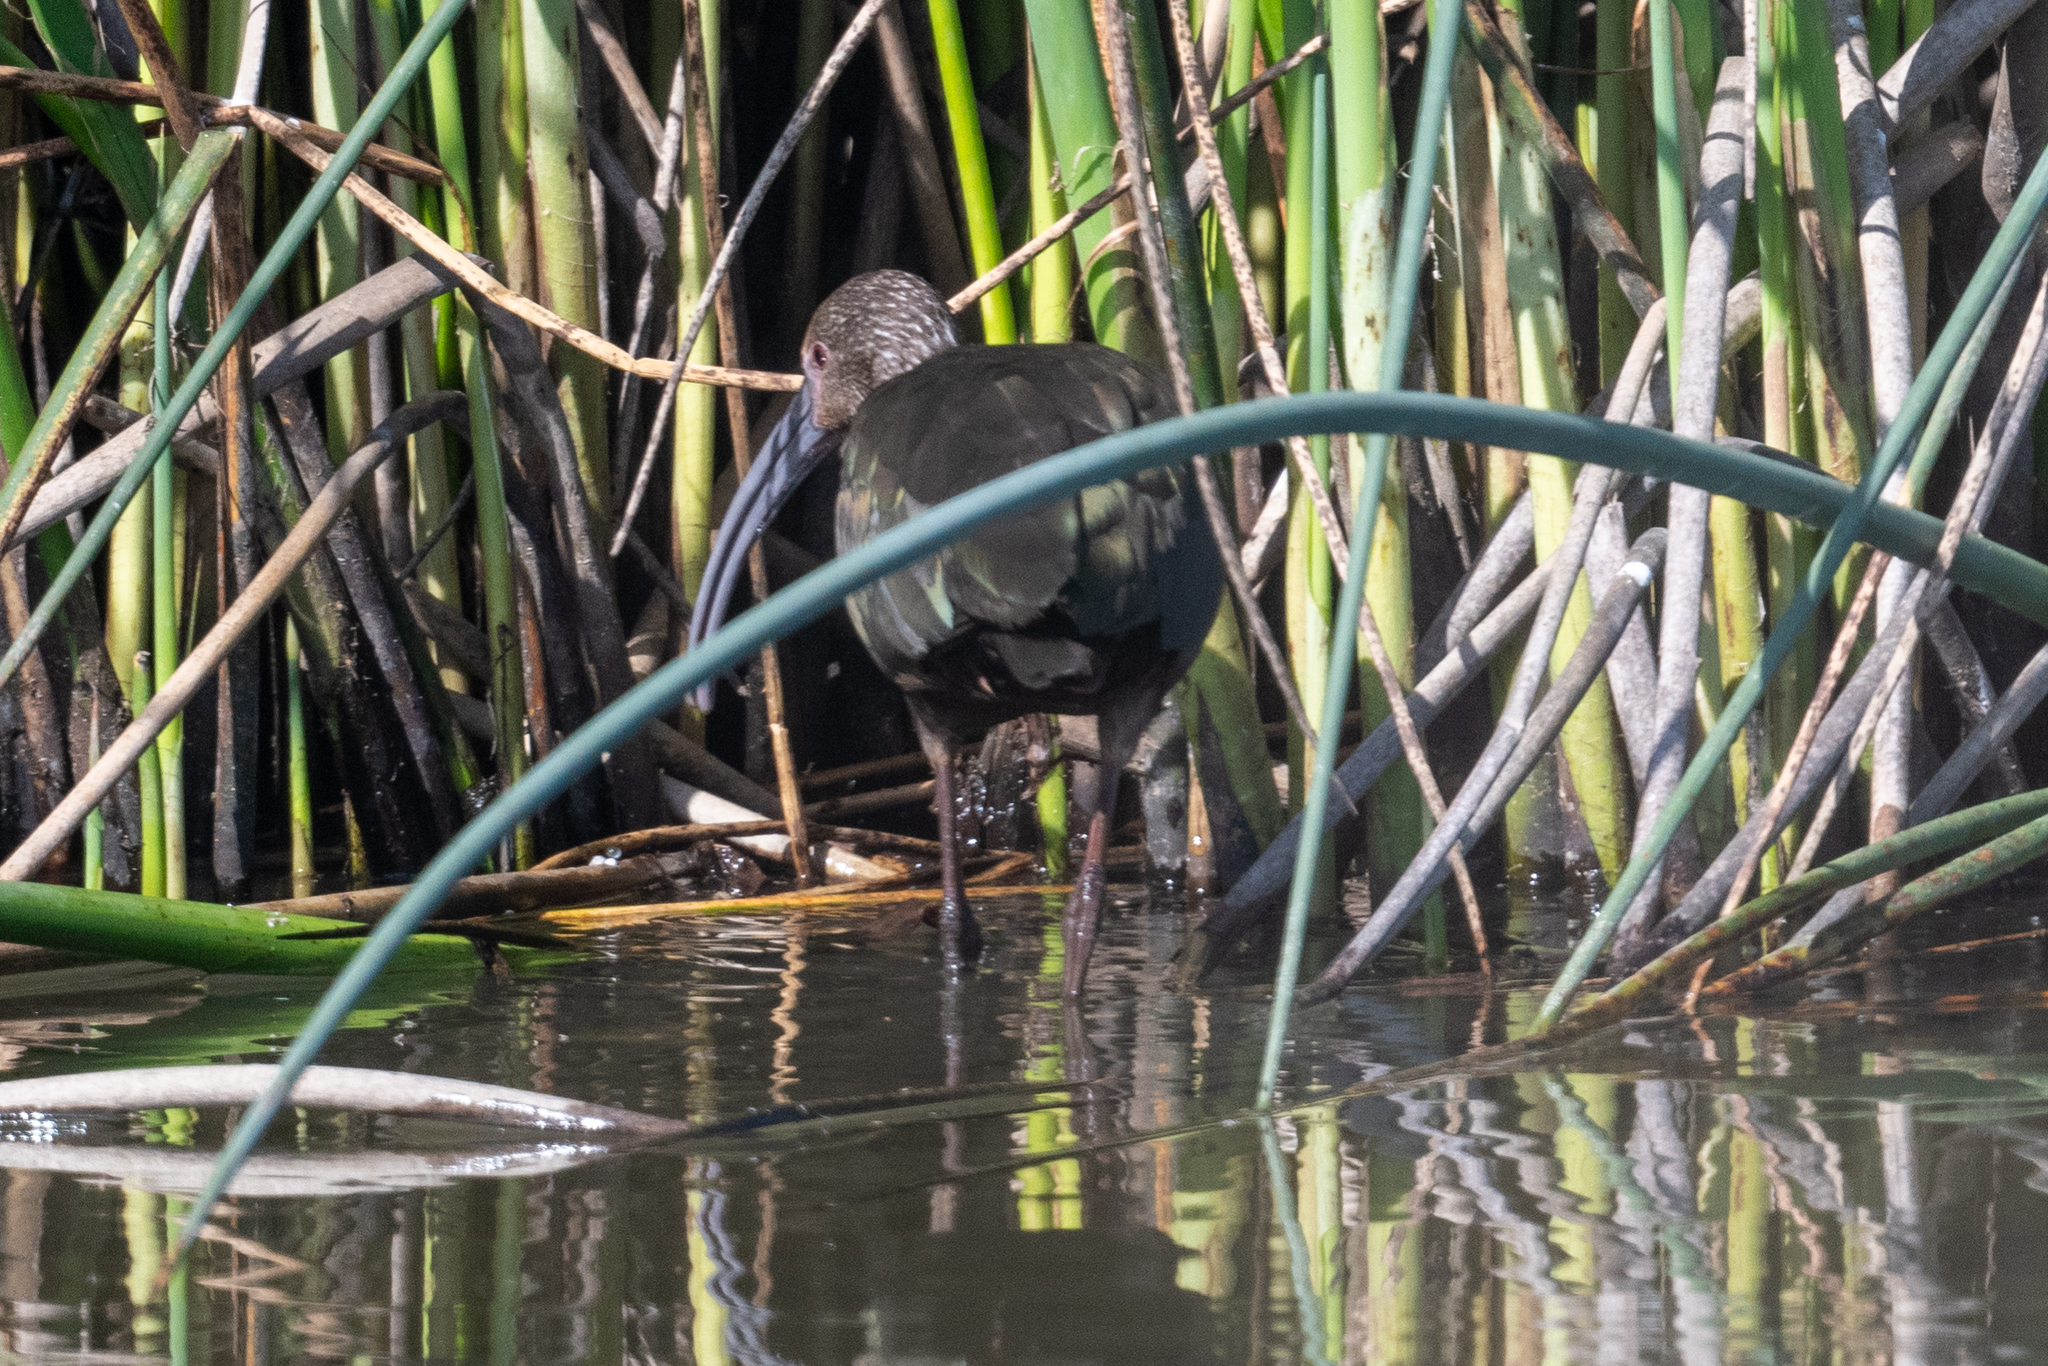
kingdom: Animalia
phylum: Chordata
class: Aves
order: Pelecaniformes
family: Threskiornithidae
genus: Plegadis
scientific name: Plegadis chihi
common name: White-faced ibis
